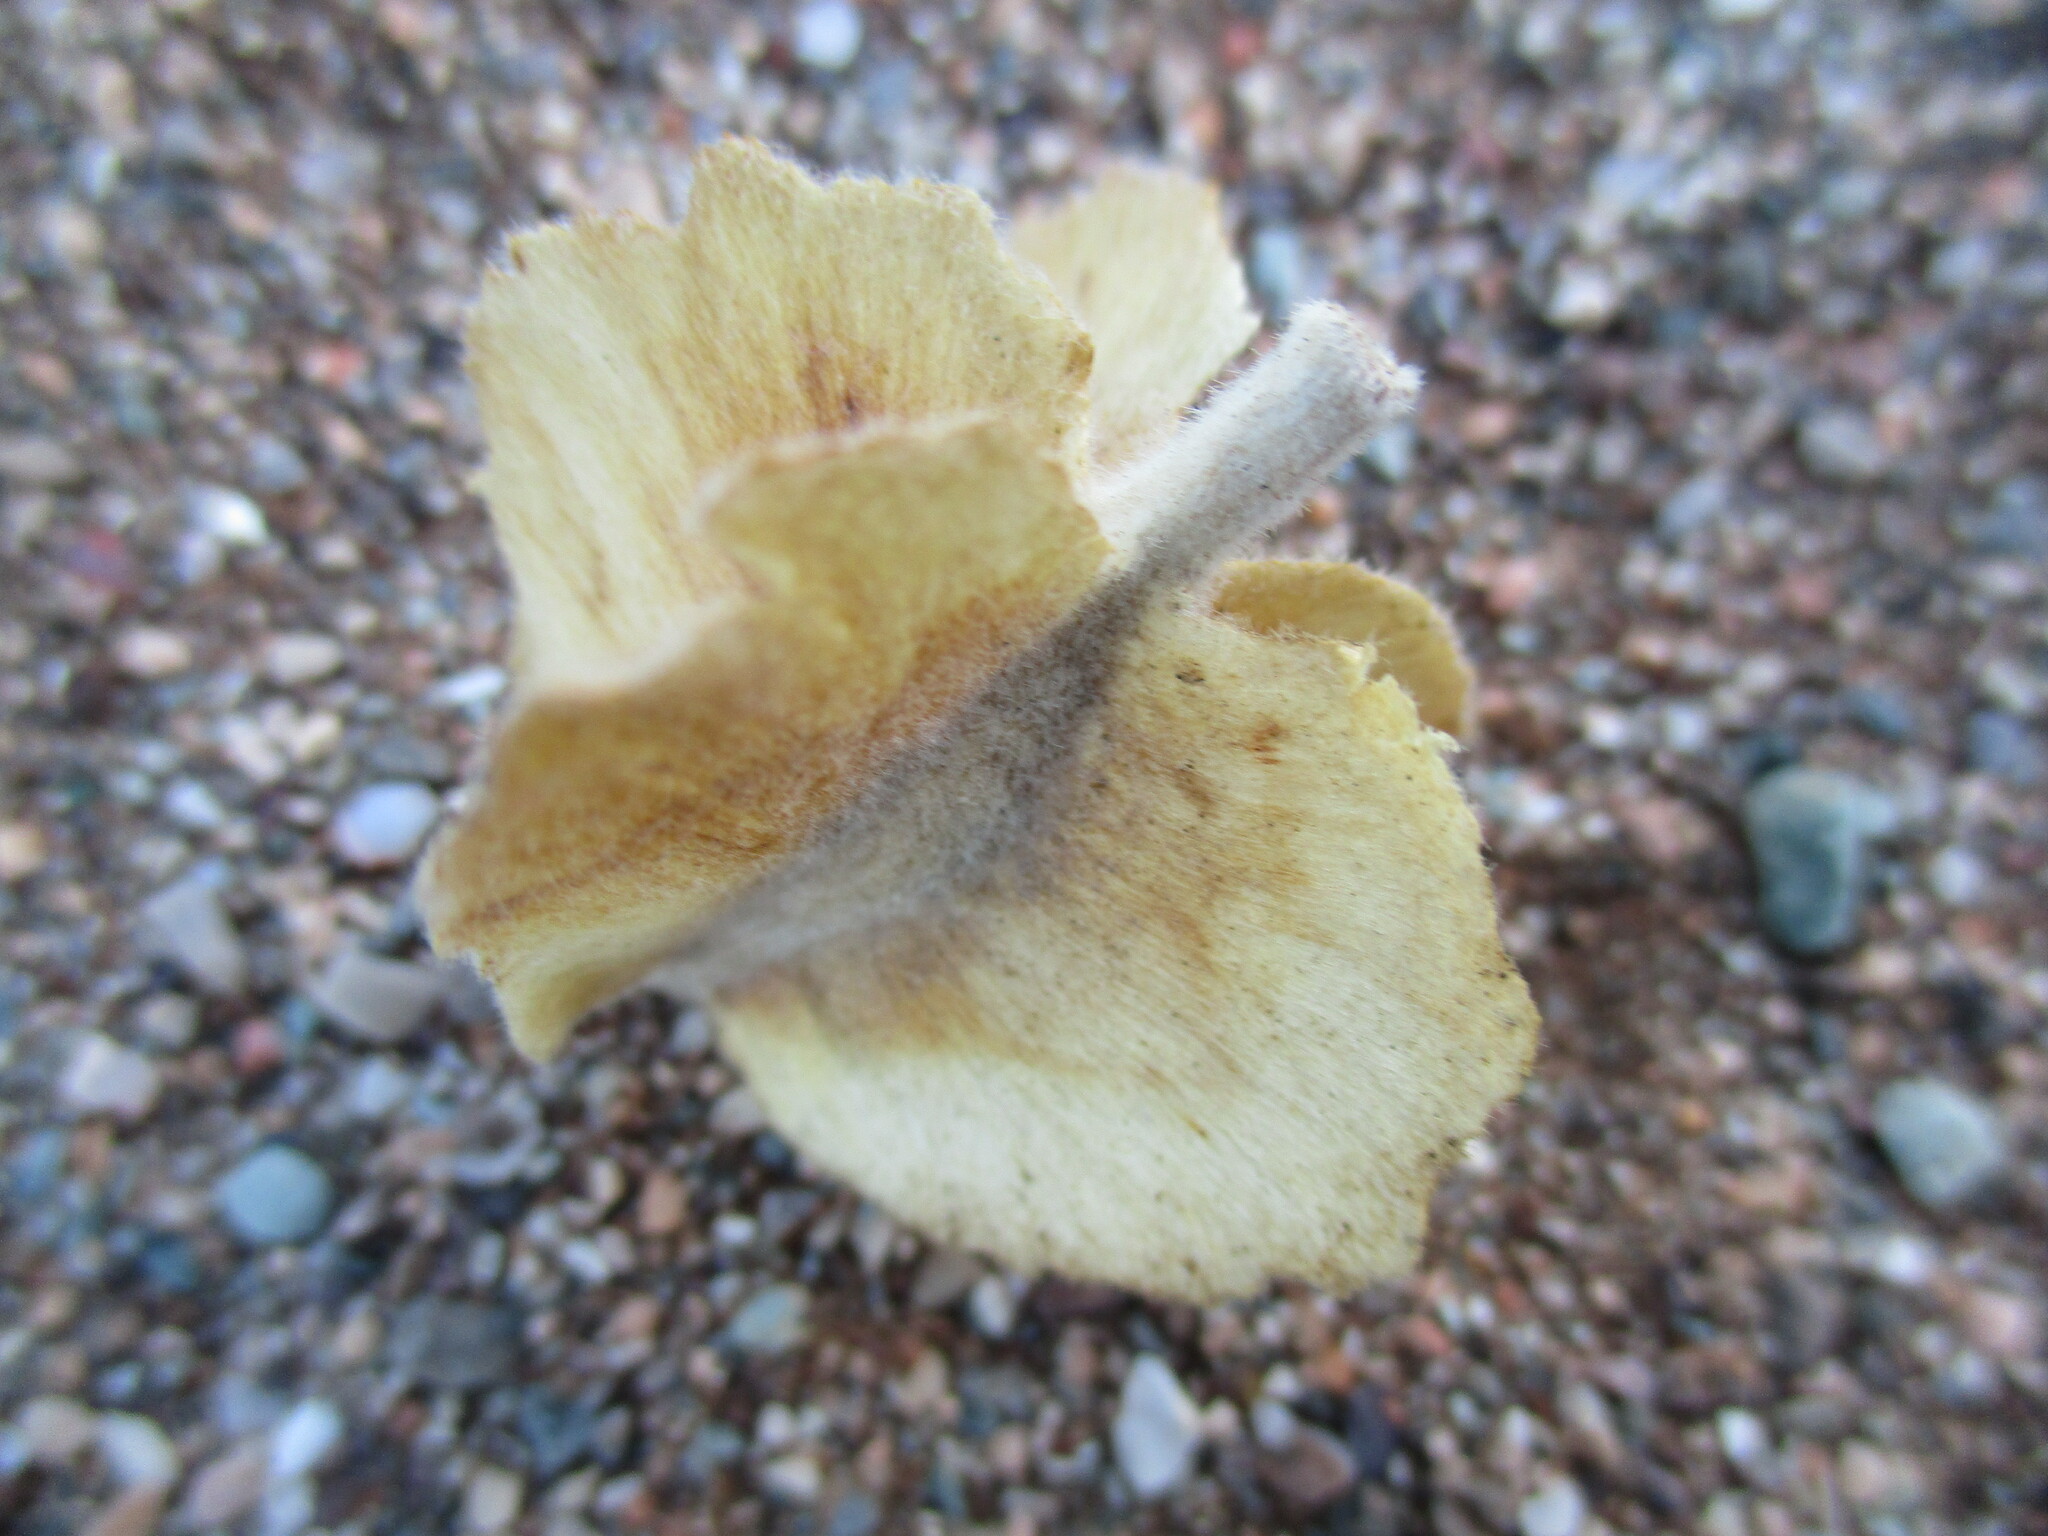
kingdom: Plantae
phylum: Tracheophyta
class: Magnoliopsida
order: Myrtales
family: Combretaceae
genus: Combretum
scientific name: Combretum wattii
